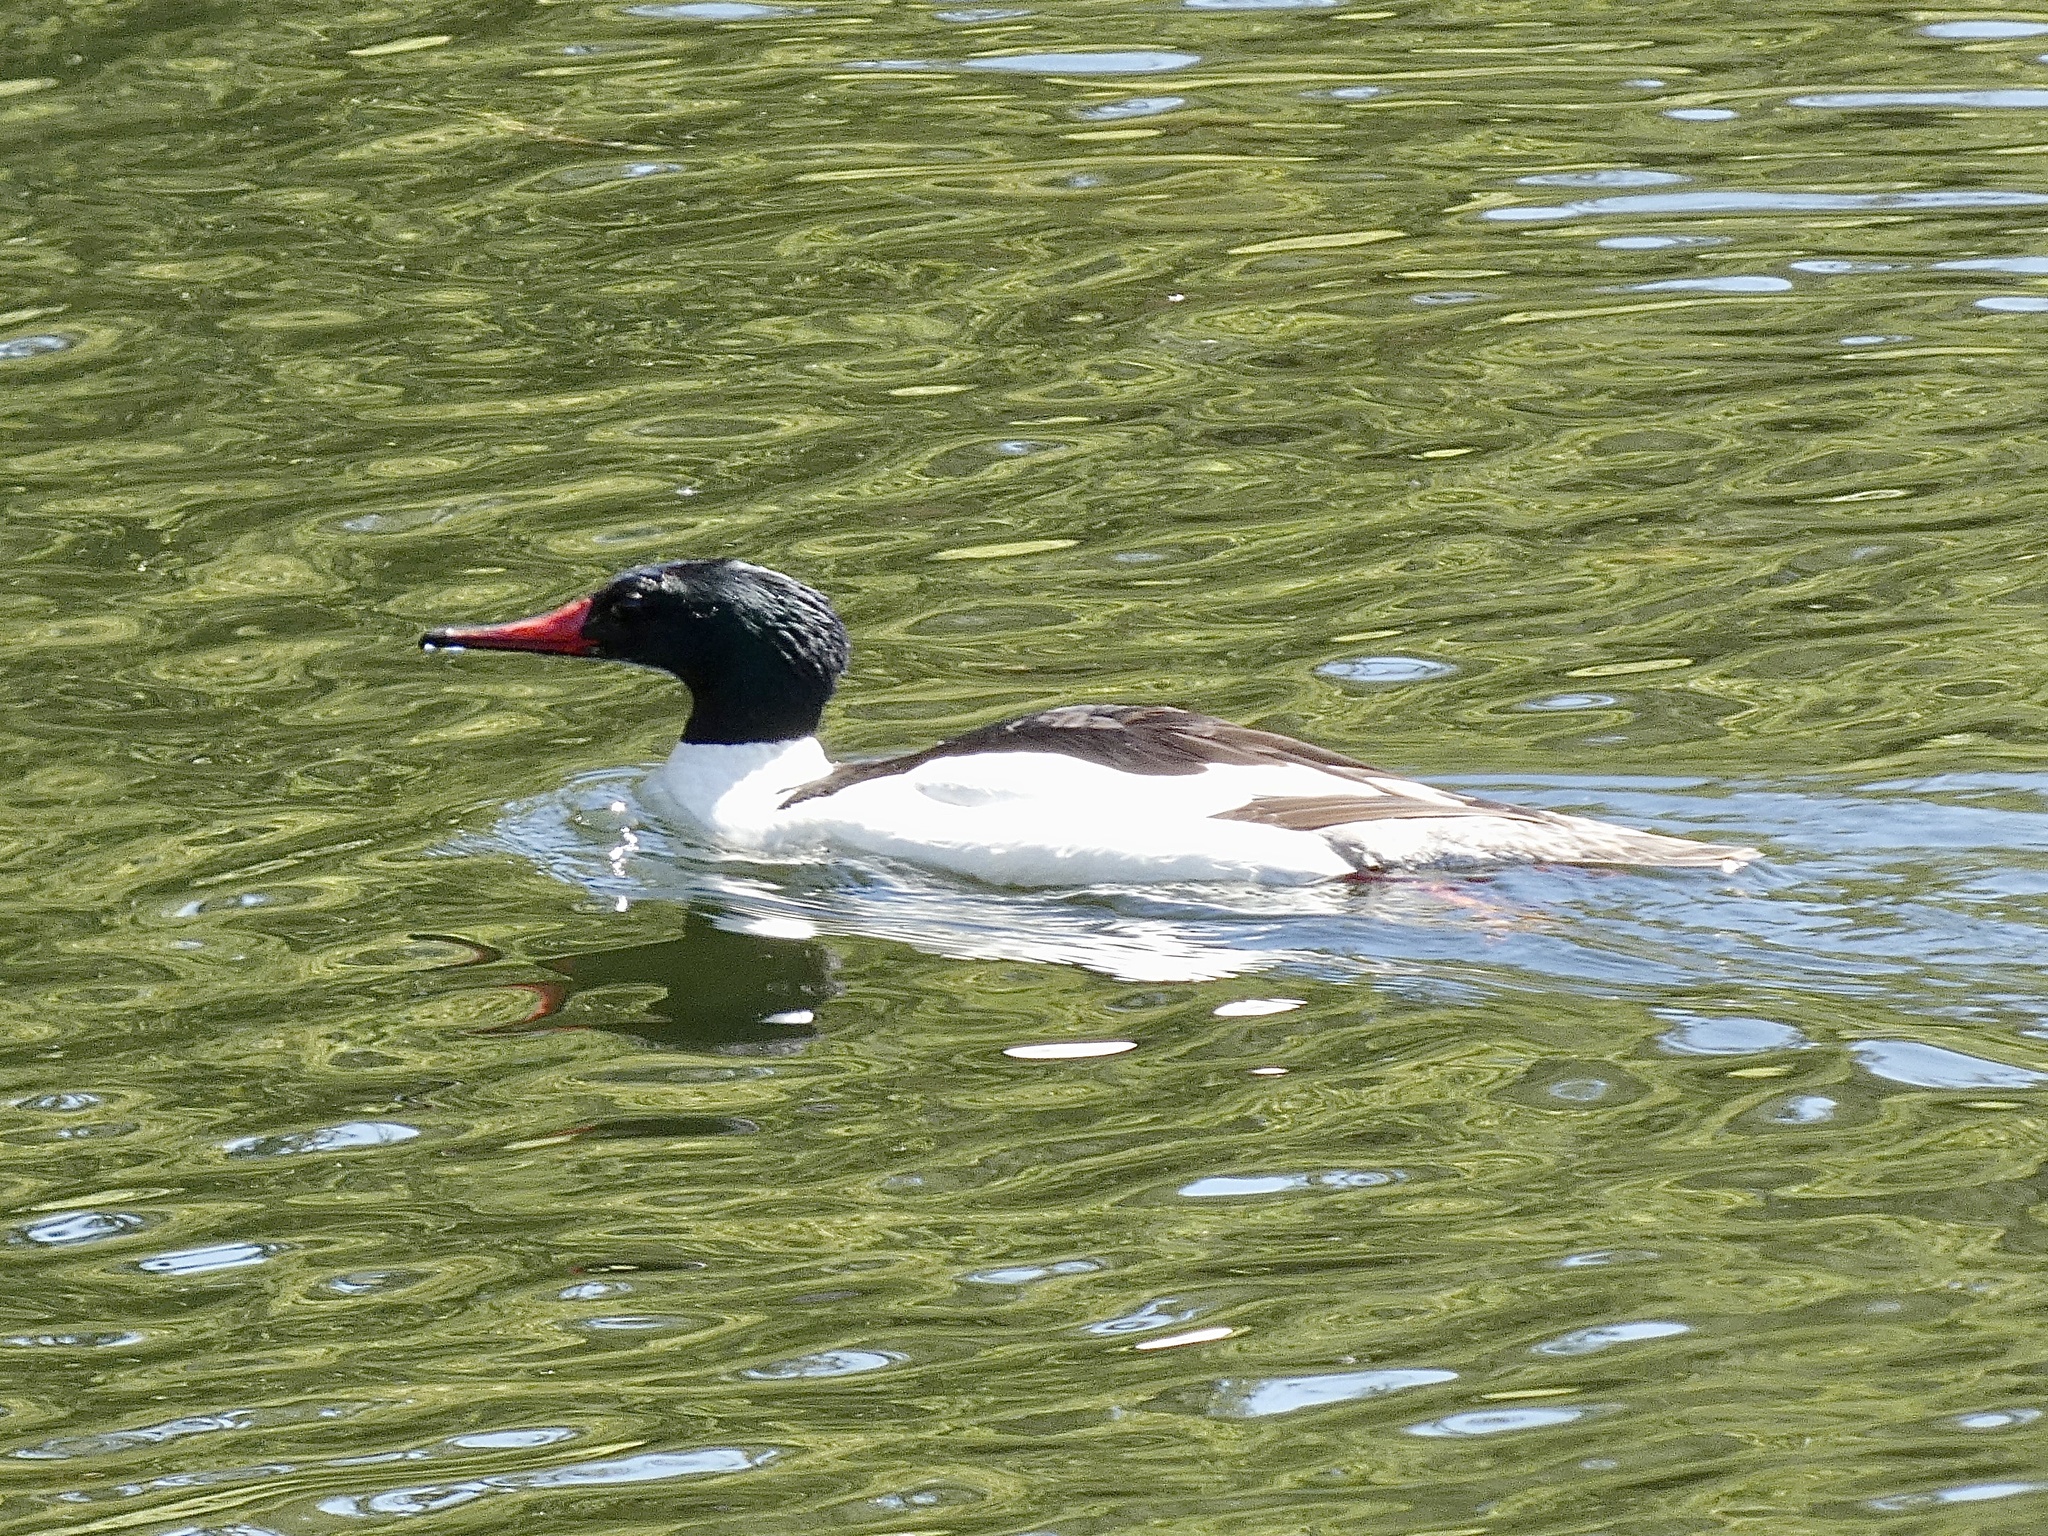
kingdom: Animalia
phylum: Chordata
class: Aves
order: Anseriformes
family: Anatidae
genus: Mergus
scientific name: Mergus merganser
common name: Common merganser
